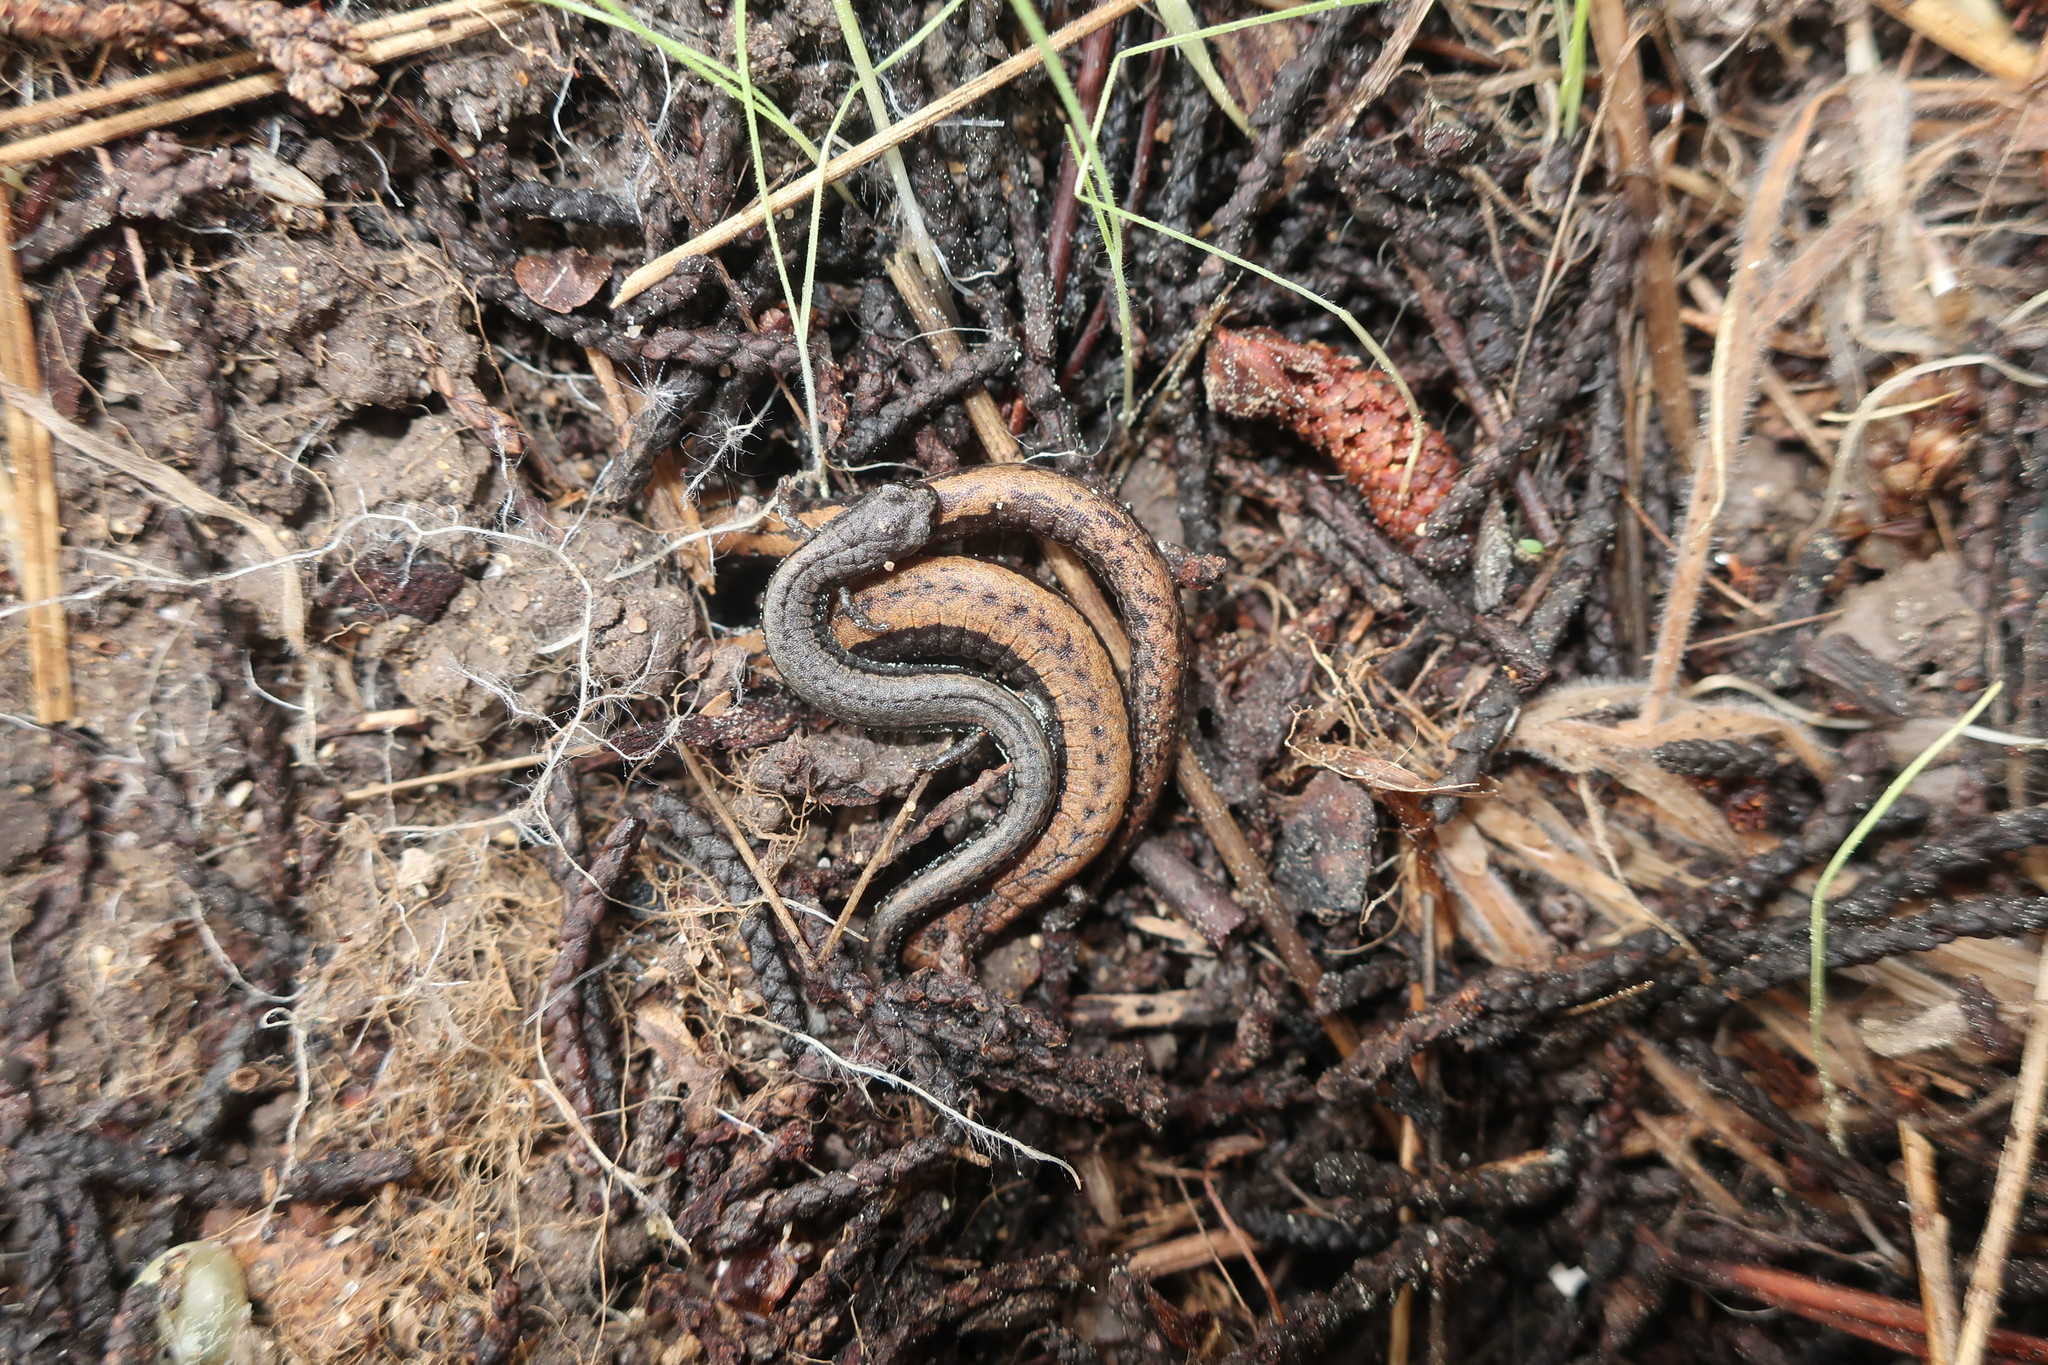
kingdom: Animalia
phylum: Chordata
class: Amphibia
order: Caudata
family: Plethodontidae
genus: Batrachoseps
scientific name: Batrachoseps attenuatus
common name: California slender salamander
